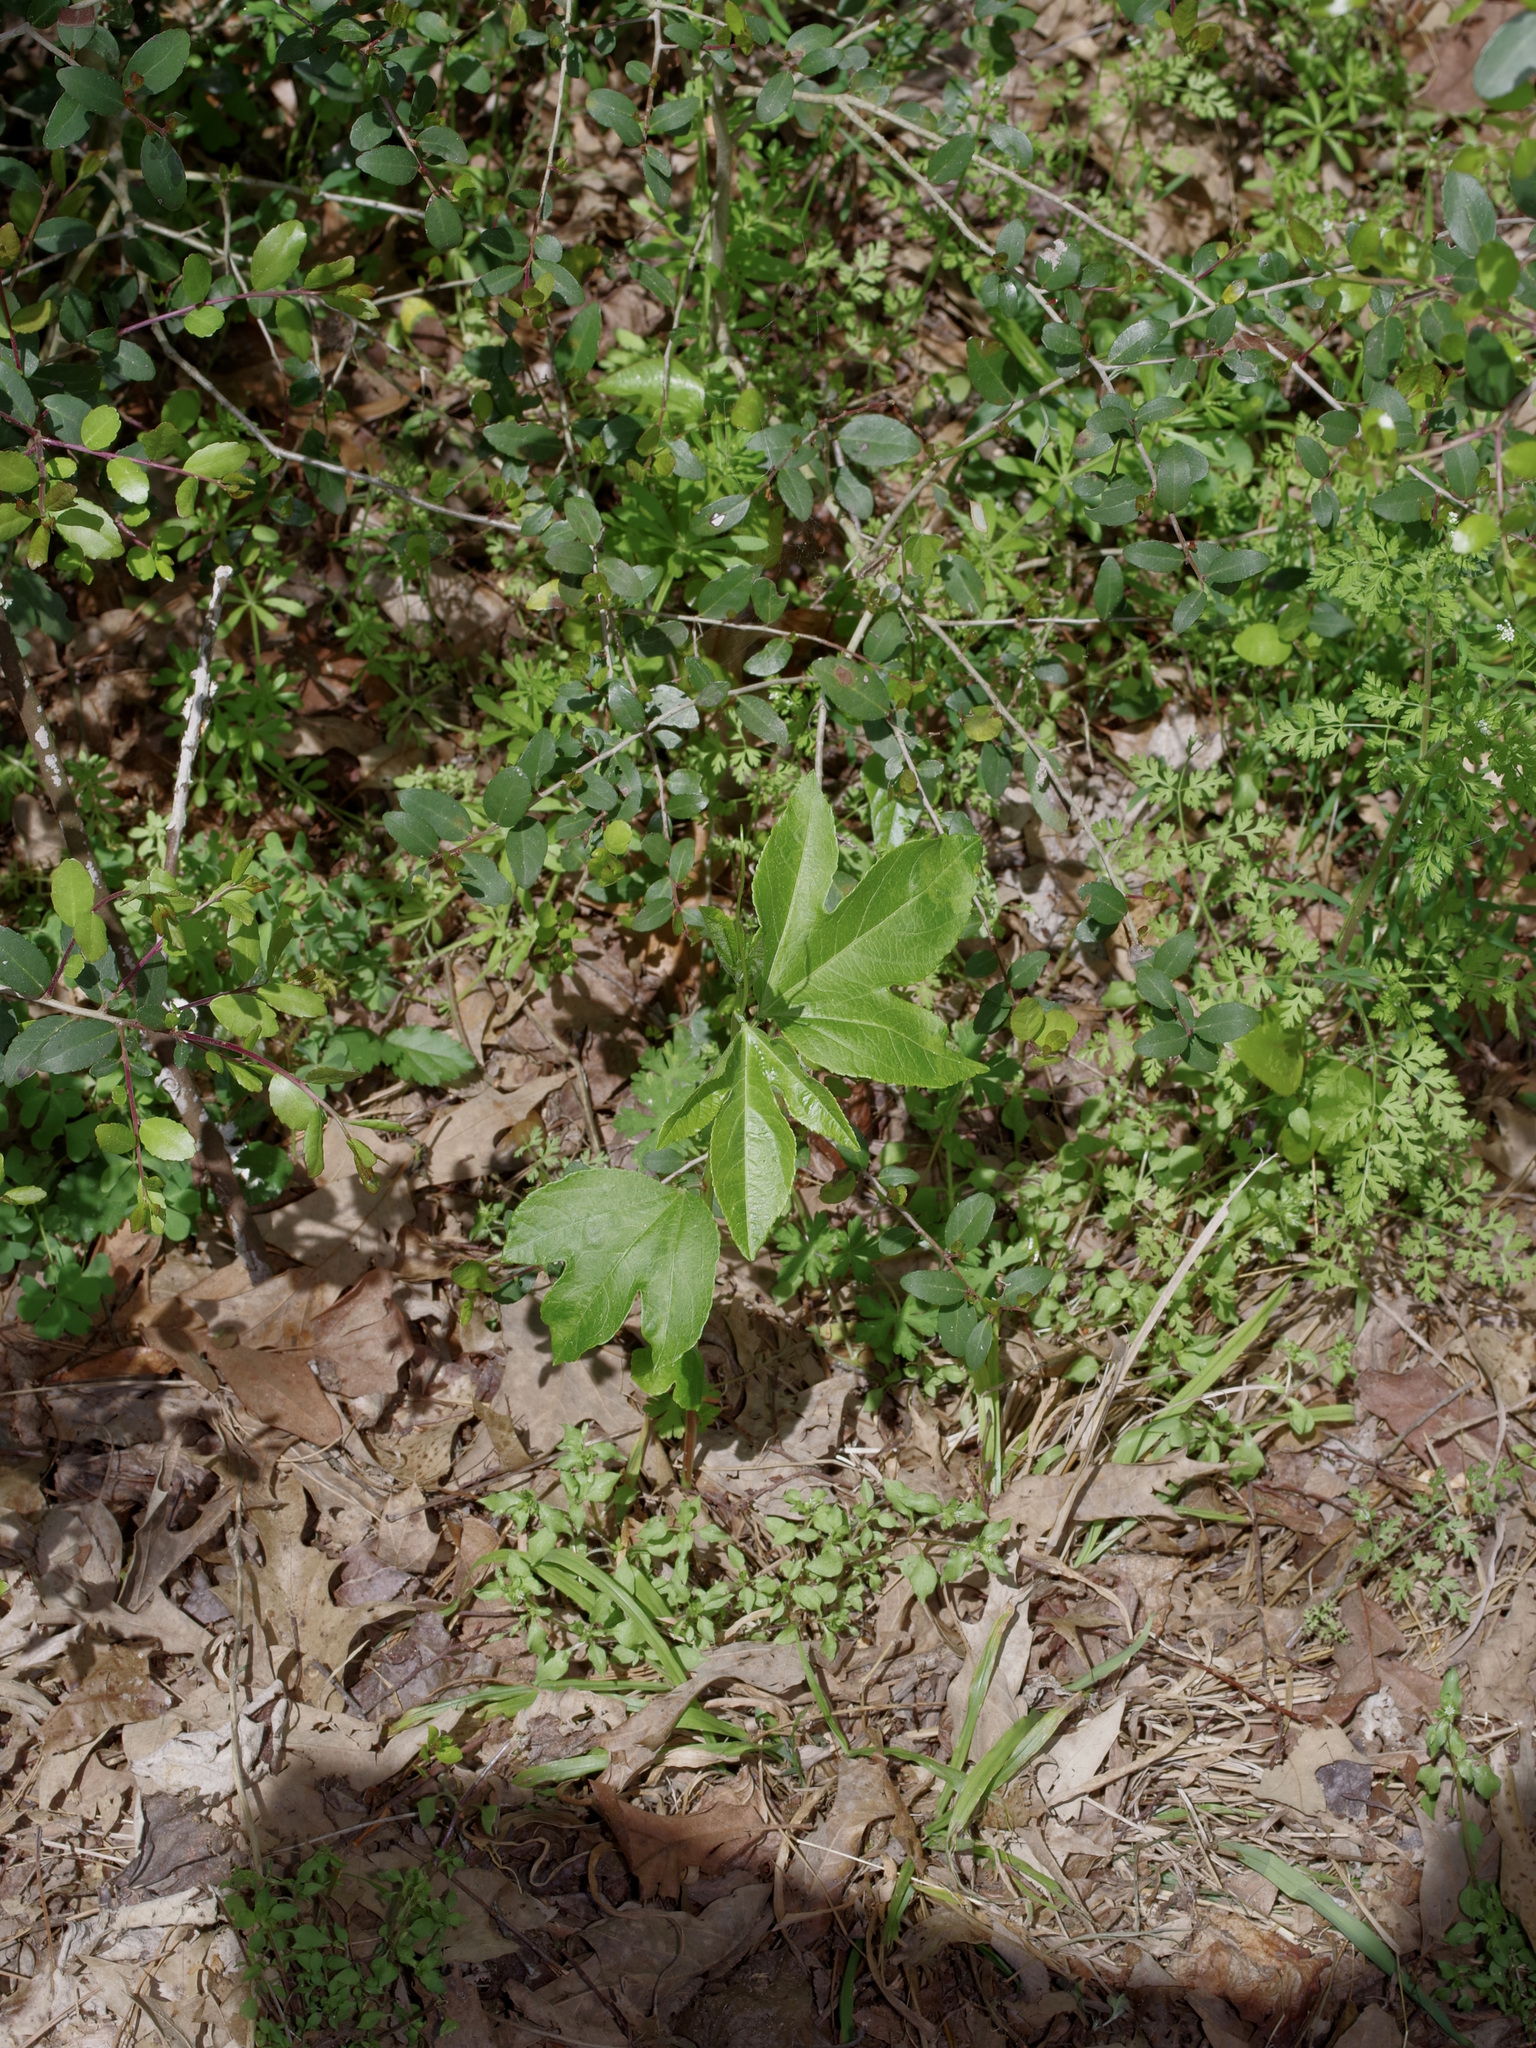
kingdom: Plantae
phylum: Tracheophyta
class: Magnoliopsida
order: Malpighiales
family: Passifloraceae
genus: Passiflora
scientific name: Passiflora incarnata
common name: Apricot-vine
